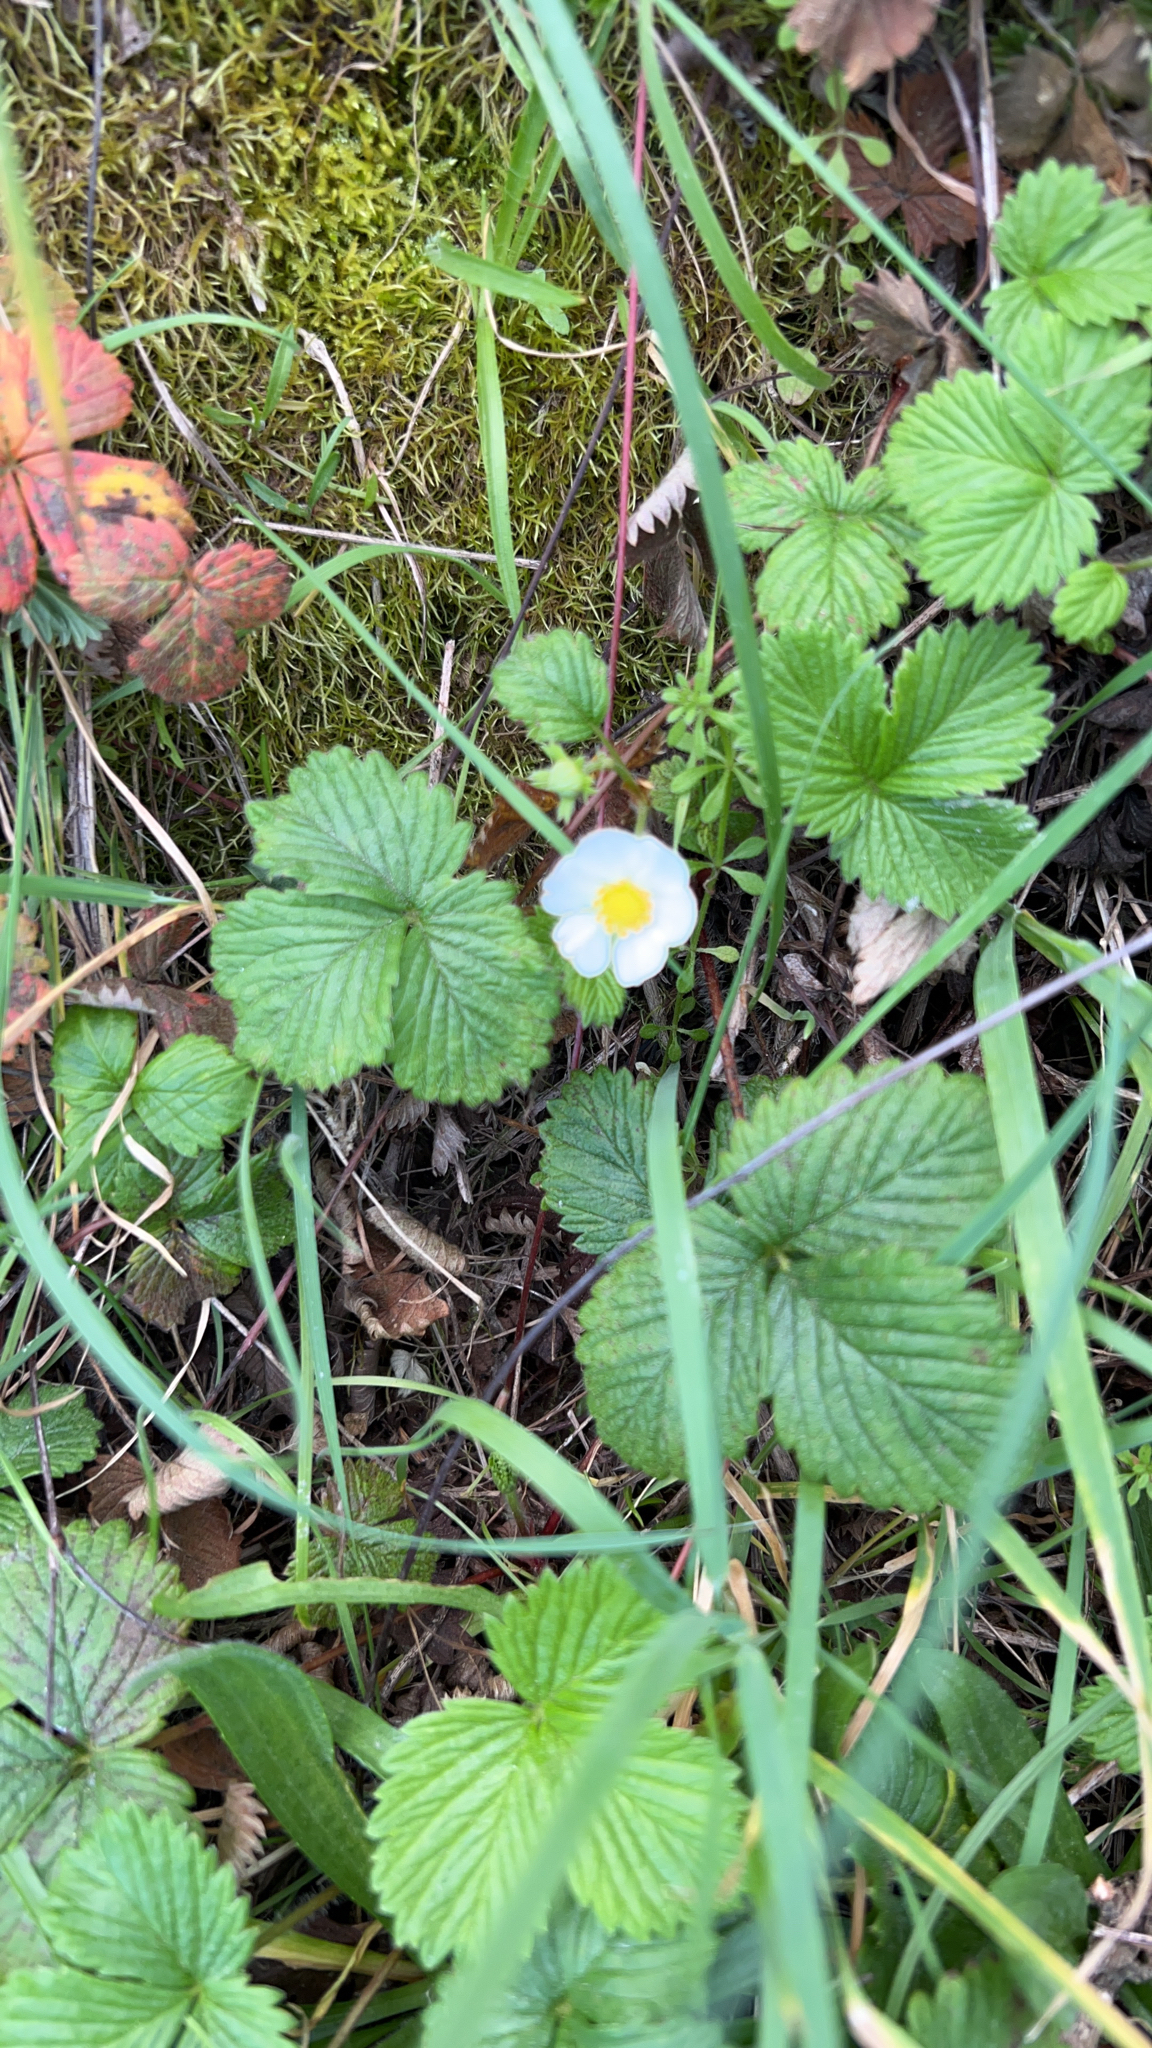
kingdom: Plantae
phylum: Tracheophyta
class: Magnoliopsida
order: Rosales
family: Rosaceae
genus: Fragaria
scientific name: Fragaria vesca
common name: Wild strawberry
